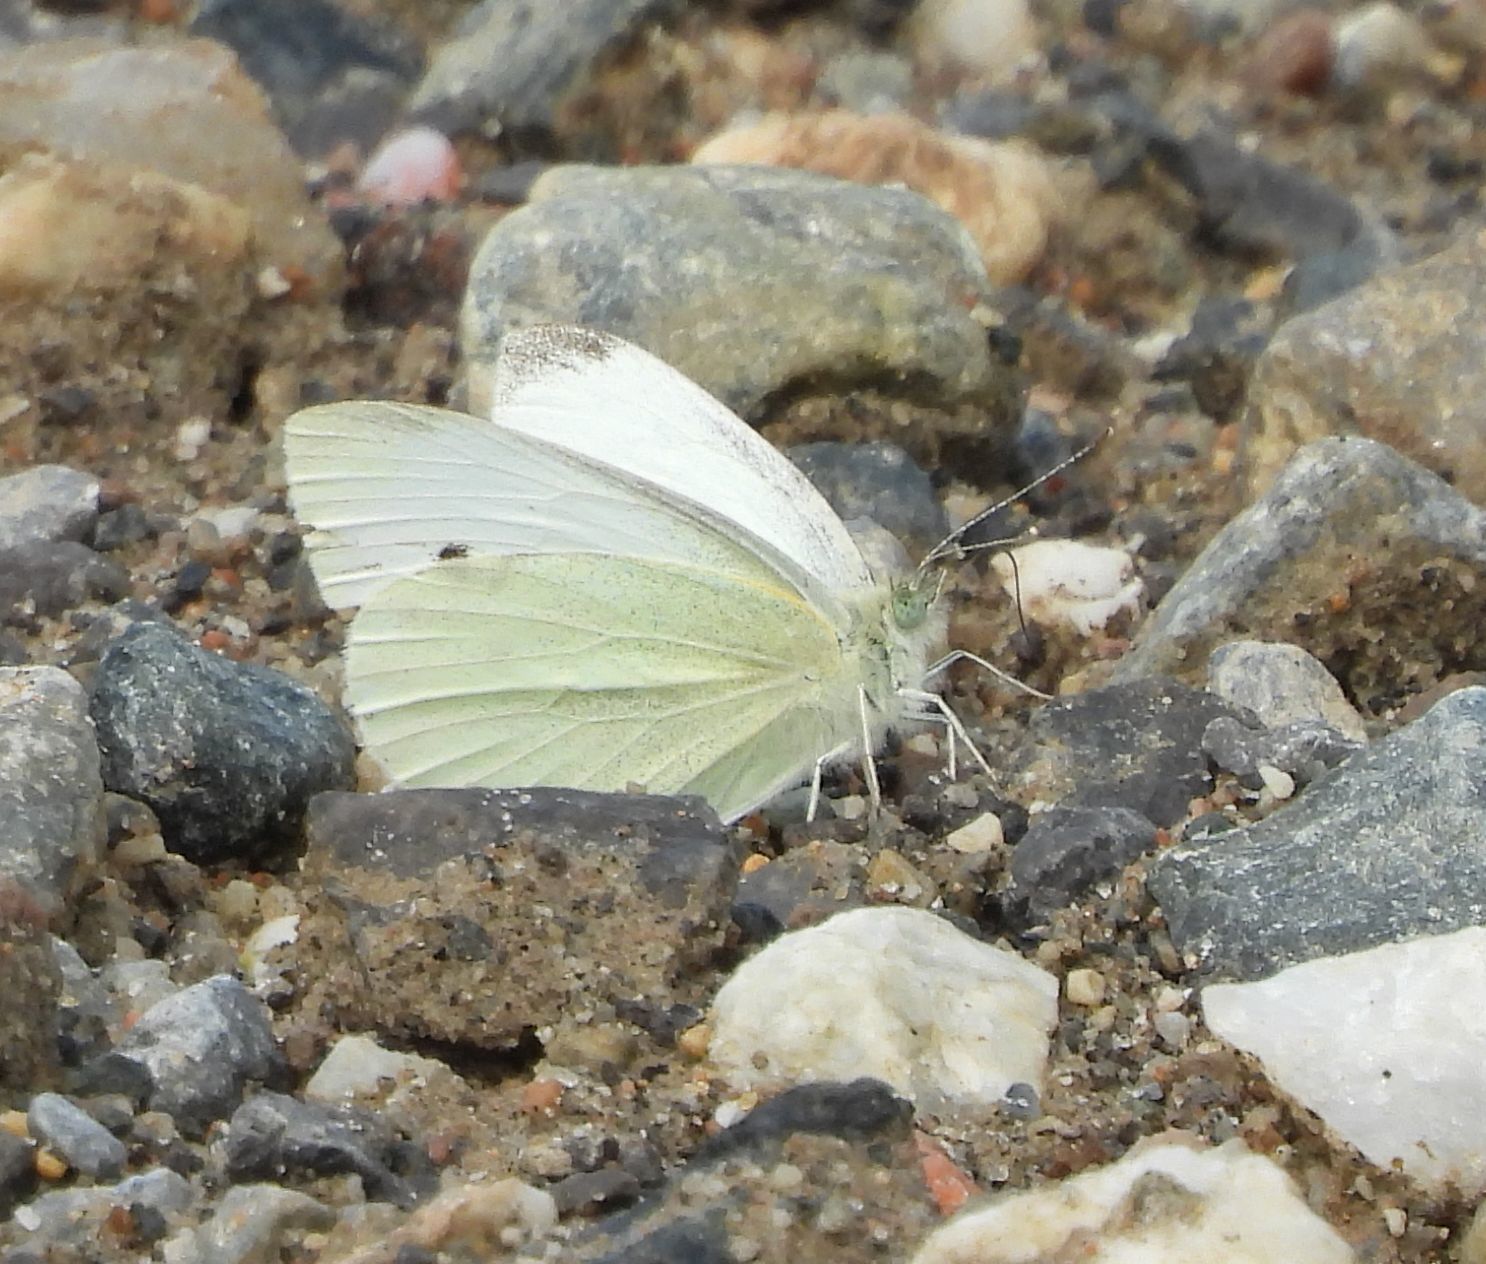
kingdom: Animalia
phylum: Arthropoda
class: Insecta
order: Lepidoptera
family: Pieridae
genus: Pieris
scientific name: Pieris rapae
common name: Small white
